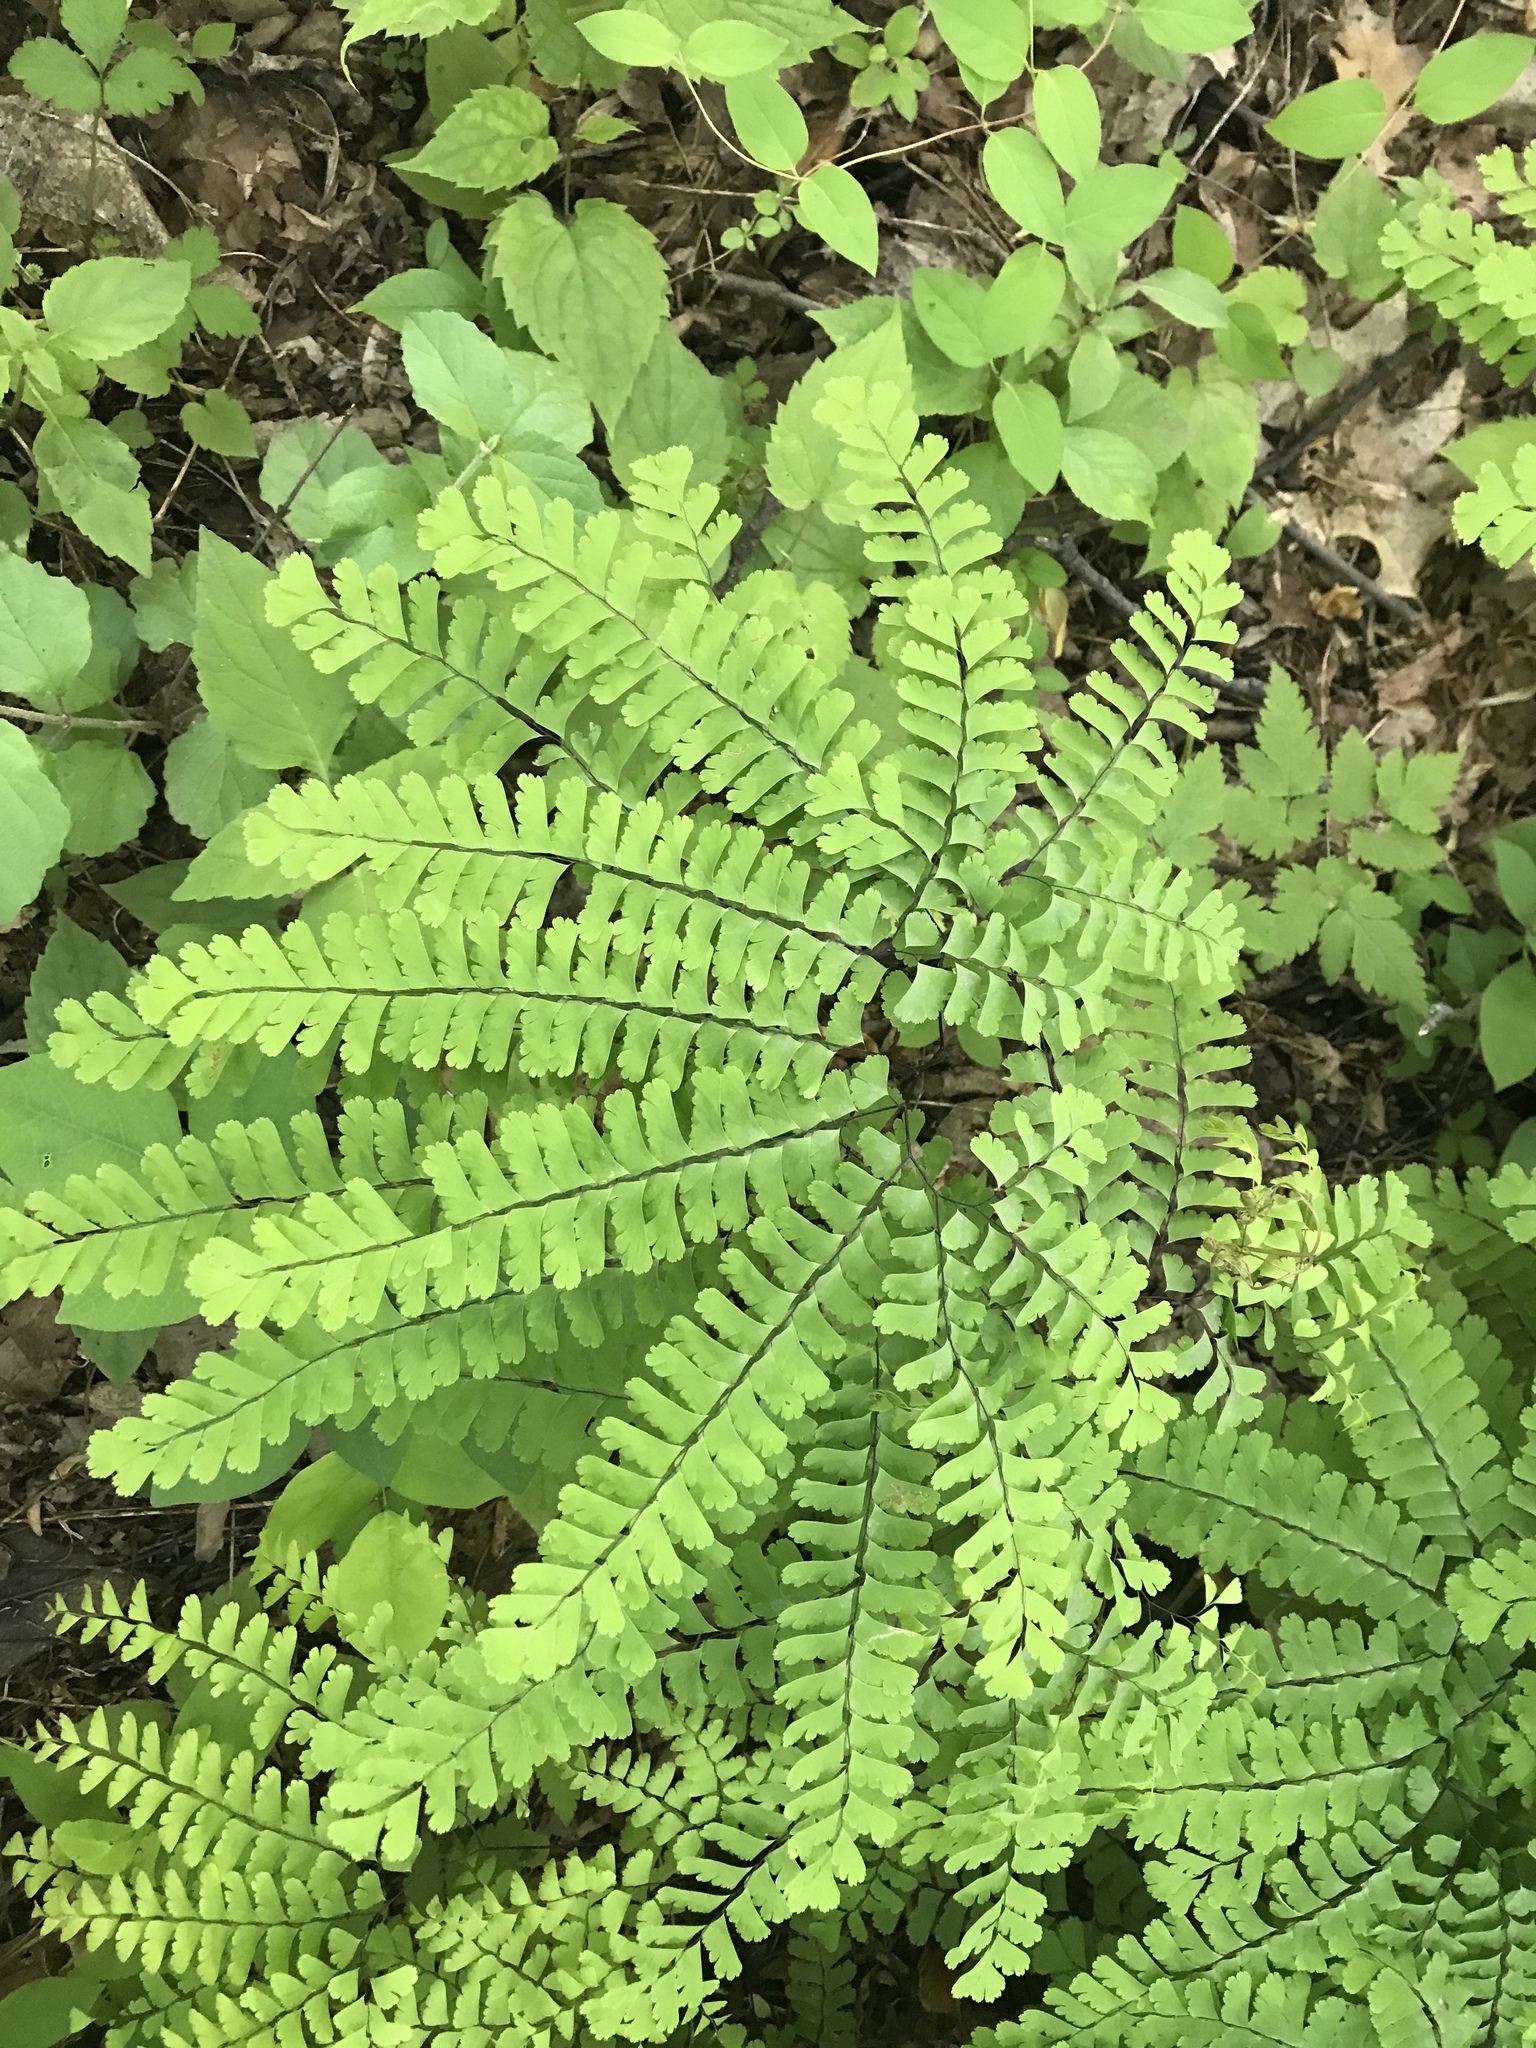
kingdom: Plantae
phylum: Tracheophyta
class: Polypodiopsida
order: Polypodiales
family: Pteridaceae
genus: Adiantum
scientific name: Adiantum pedatum
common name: Five-finger fern
